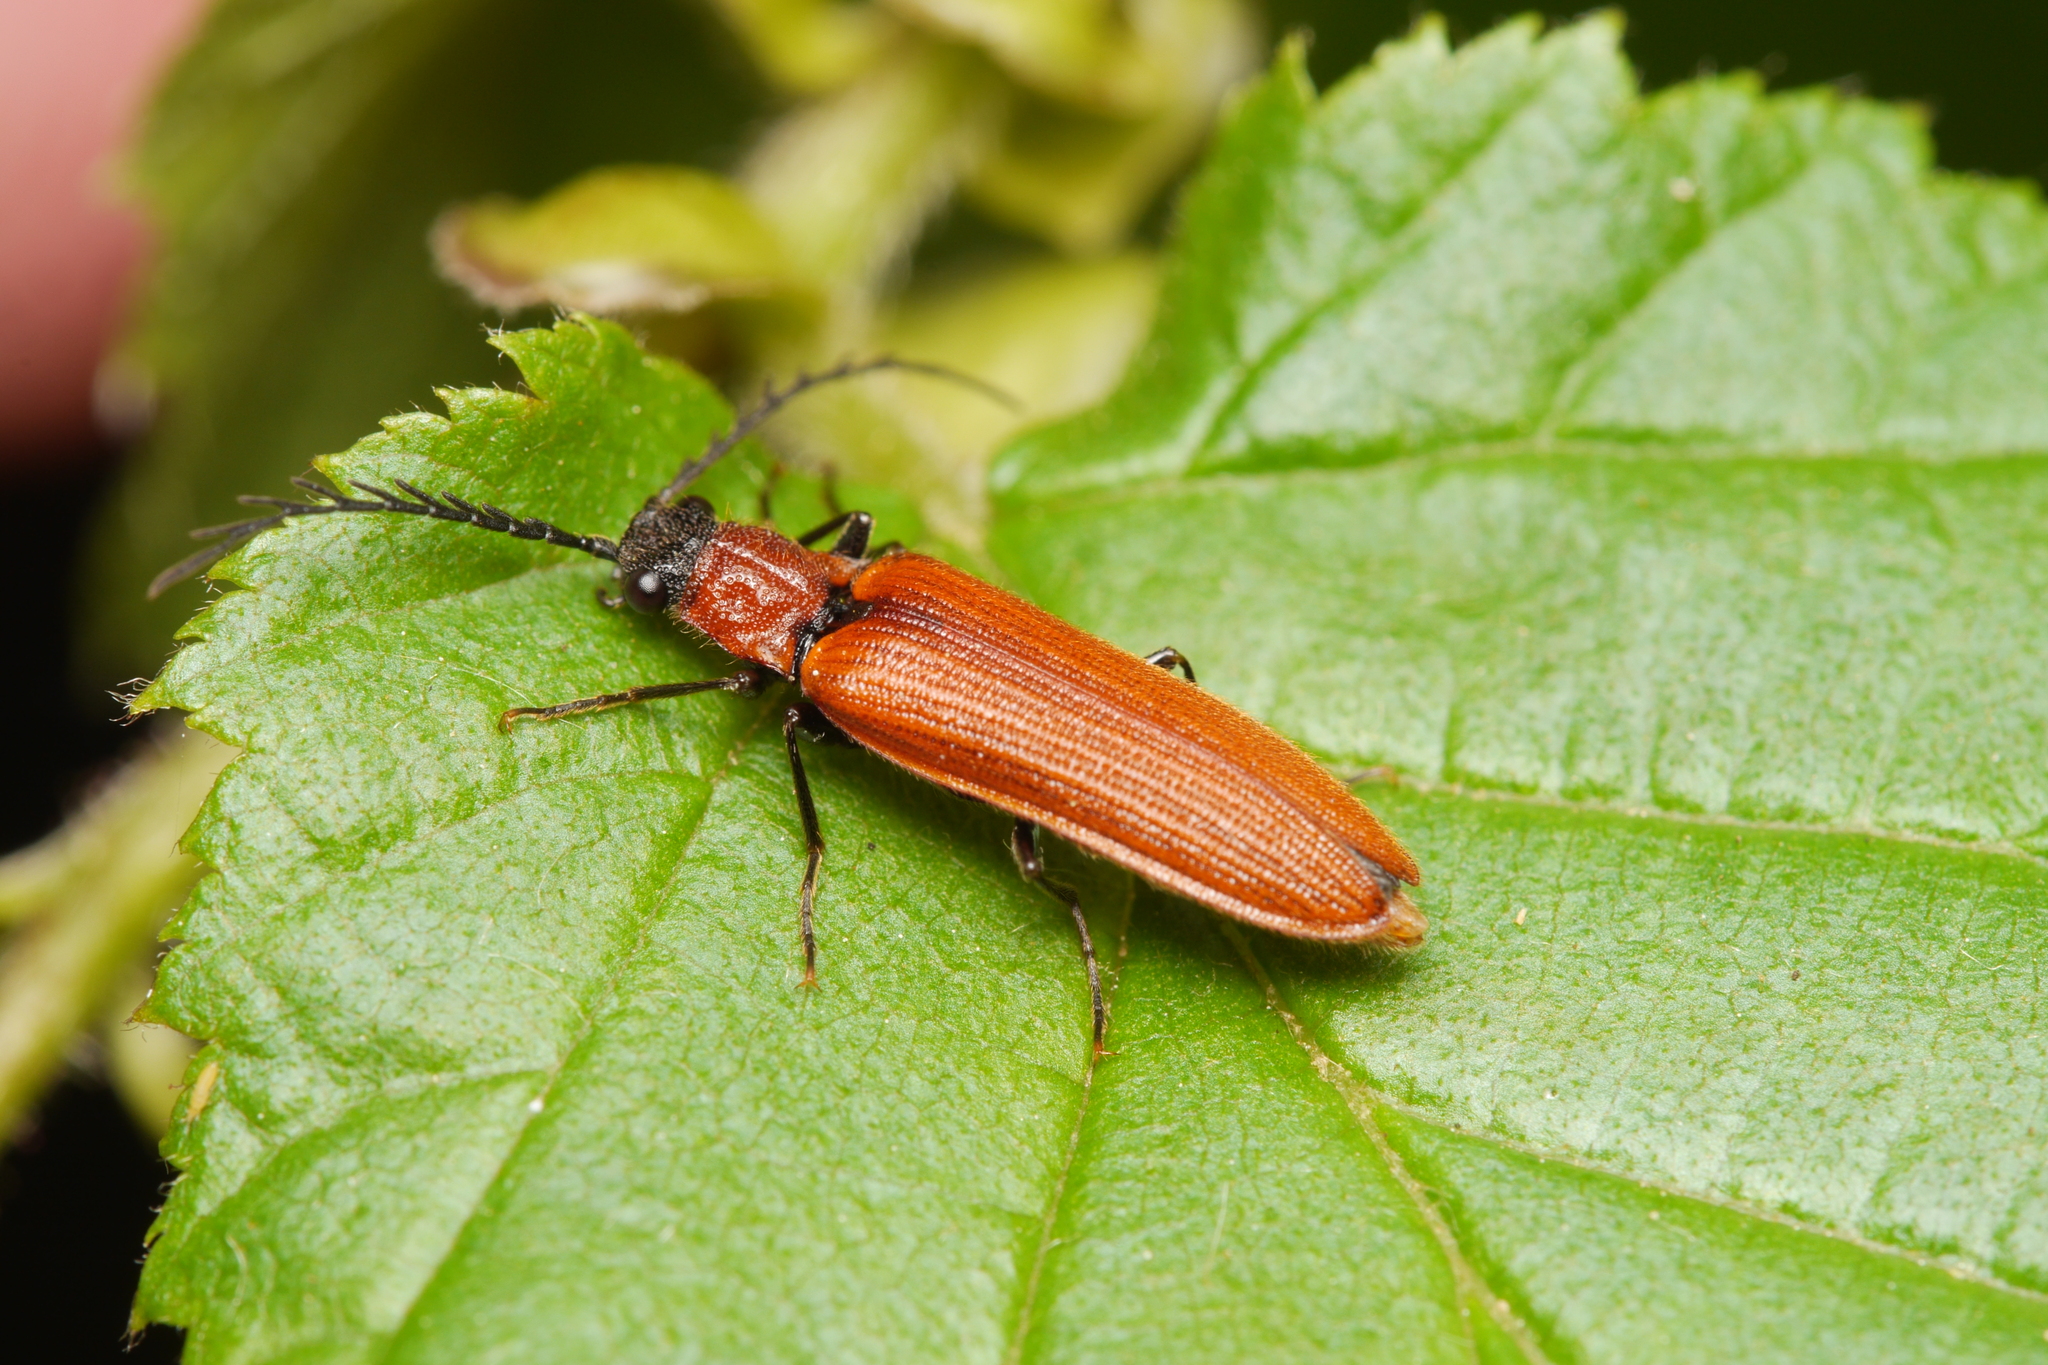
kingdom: Animalia
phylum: Arthropoda
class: Insecta
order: Coleoptera
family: Elateridae
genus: Denticollis
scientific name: Denticollis rubens
